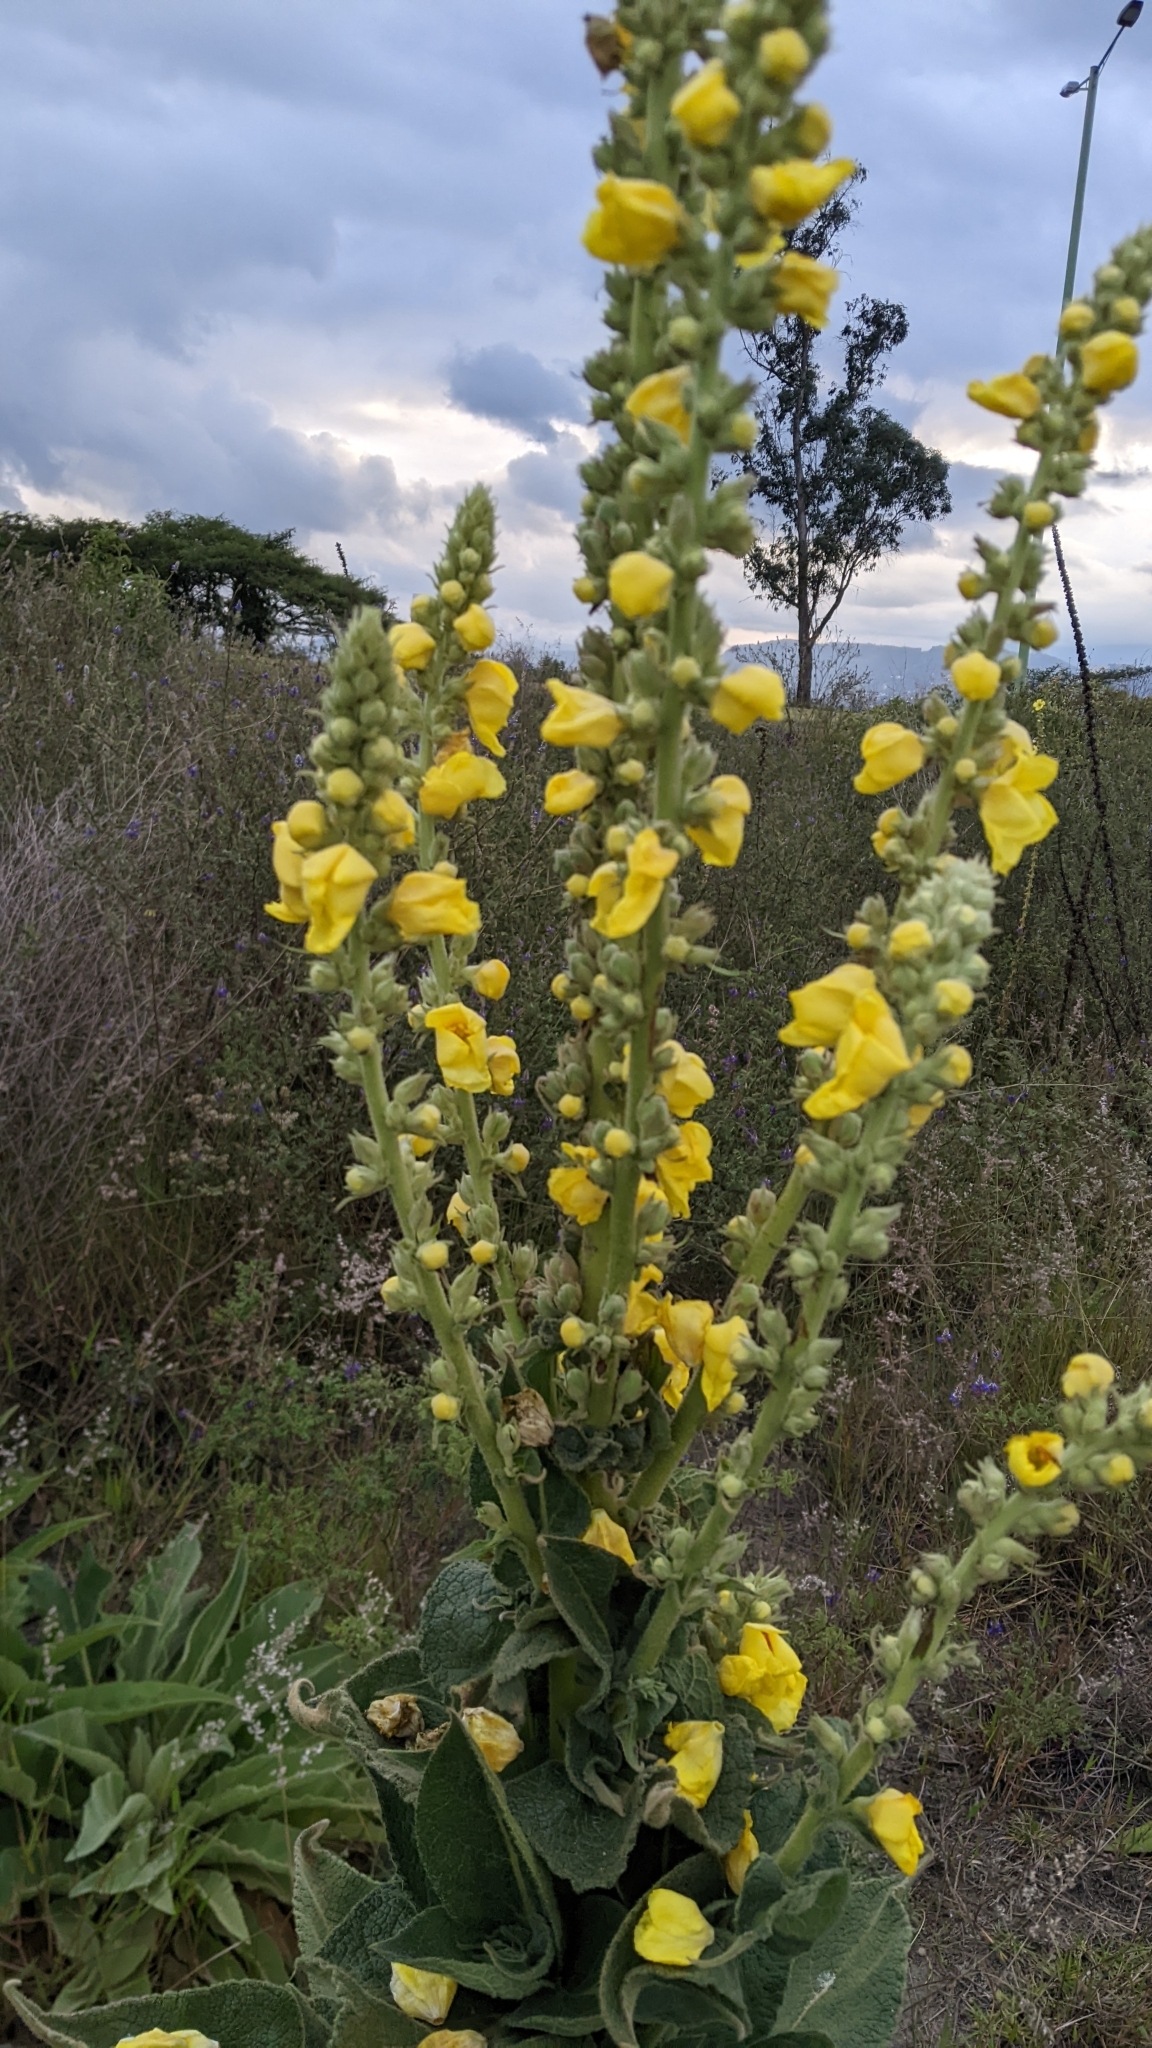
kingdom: Plantae
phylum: Tracheophyta
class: Magnoliopsida
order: Lamiales
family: Scrophulariaceae
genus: Verbascum
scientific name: Verbascum phlomoides
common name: Orange mullein
